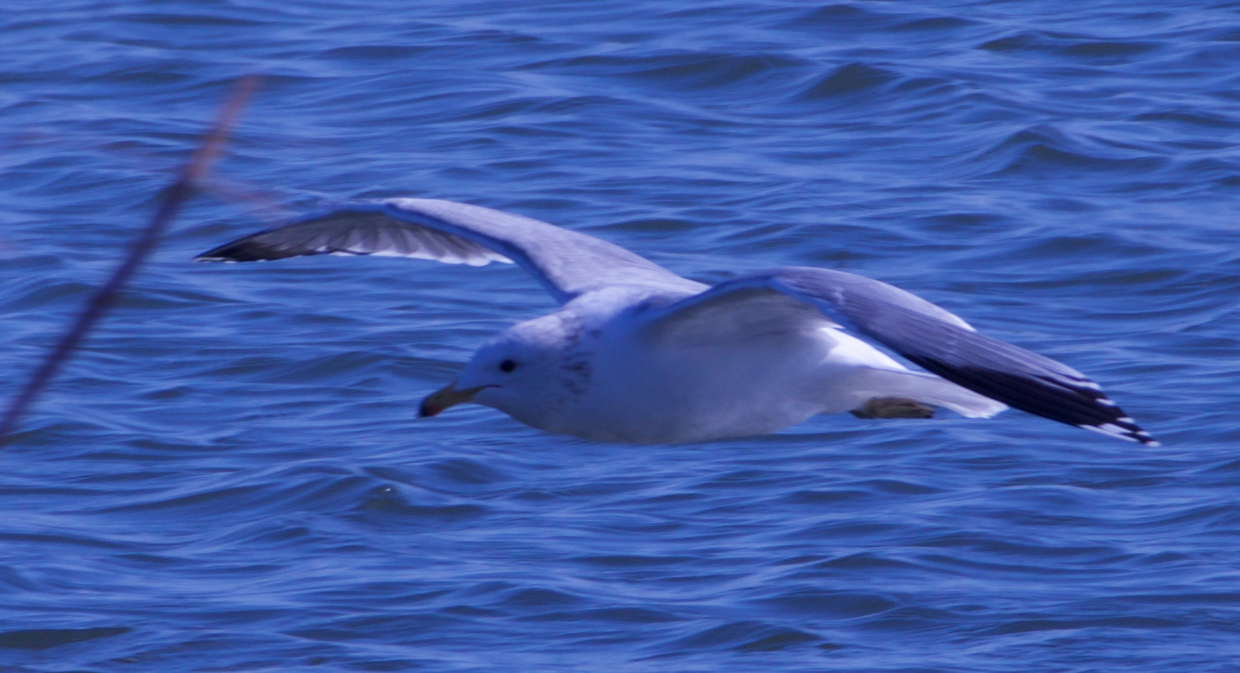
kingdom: Animalia
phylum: Chordata
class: Aves
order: Charadriiformes
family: Laridae
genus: Larus
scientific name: Larus californicus
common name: California gull
